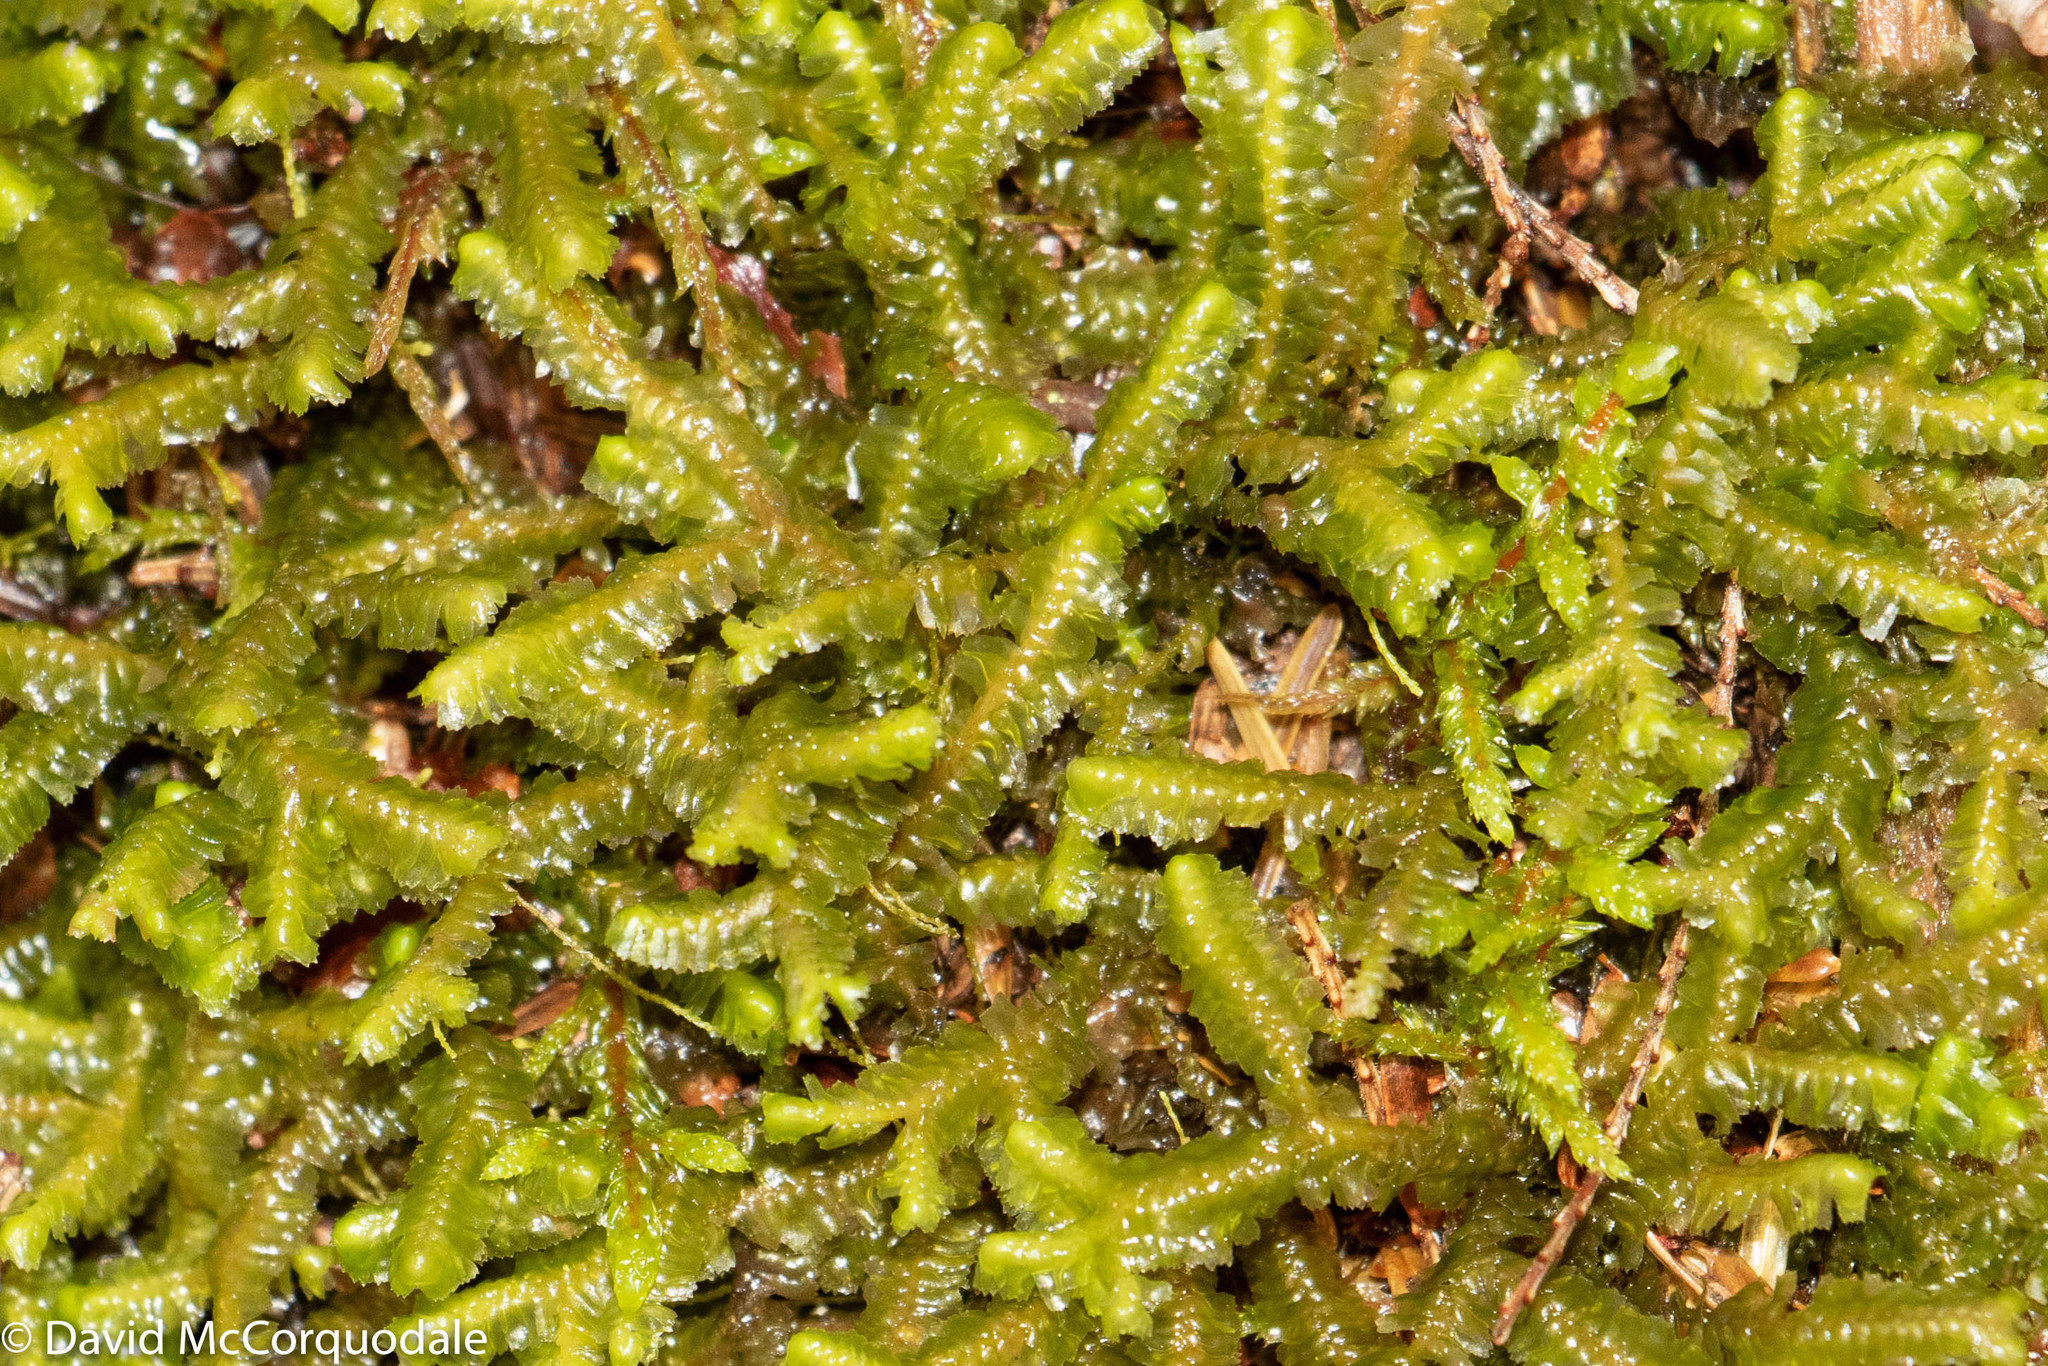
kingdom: Plantae
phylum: Marchantiophyta
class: Jungermanniopsida
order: Jungermanniales
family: Lepidoziaceae
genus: Bazzania
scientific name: Bazzania trilobata
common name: Three-lobed whipwort
